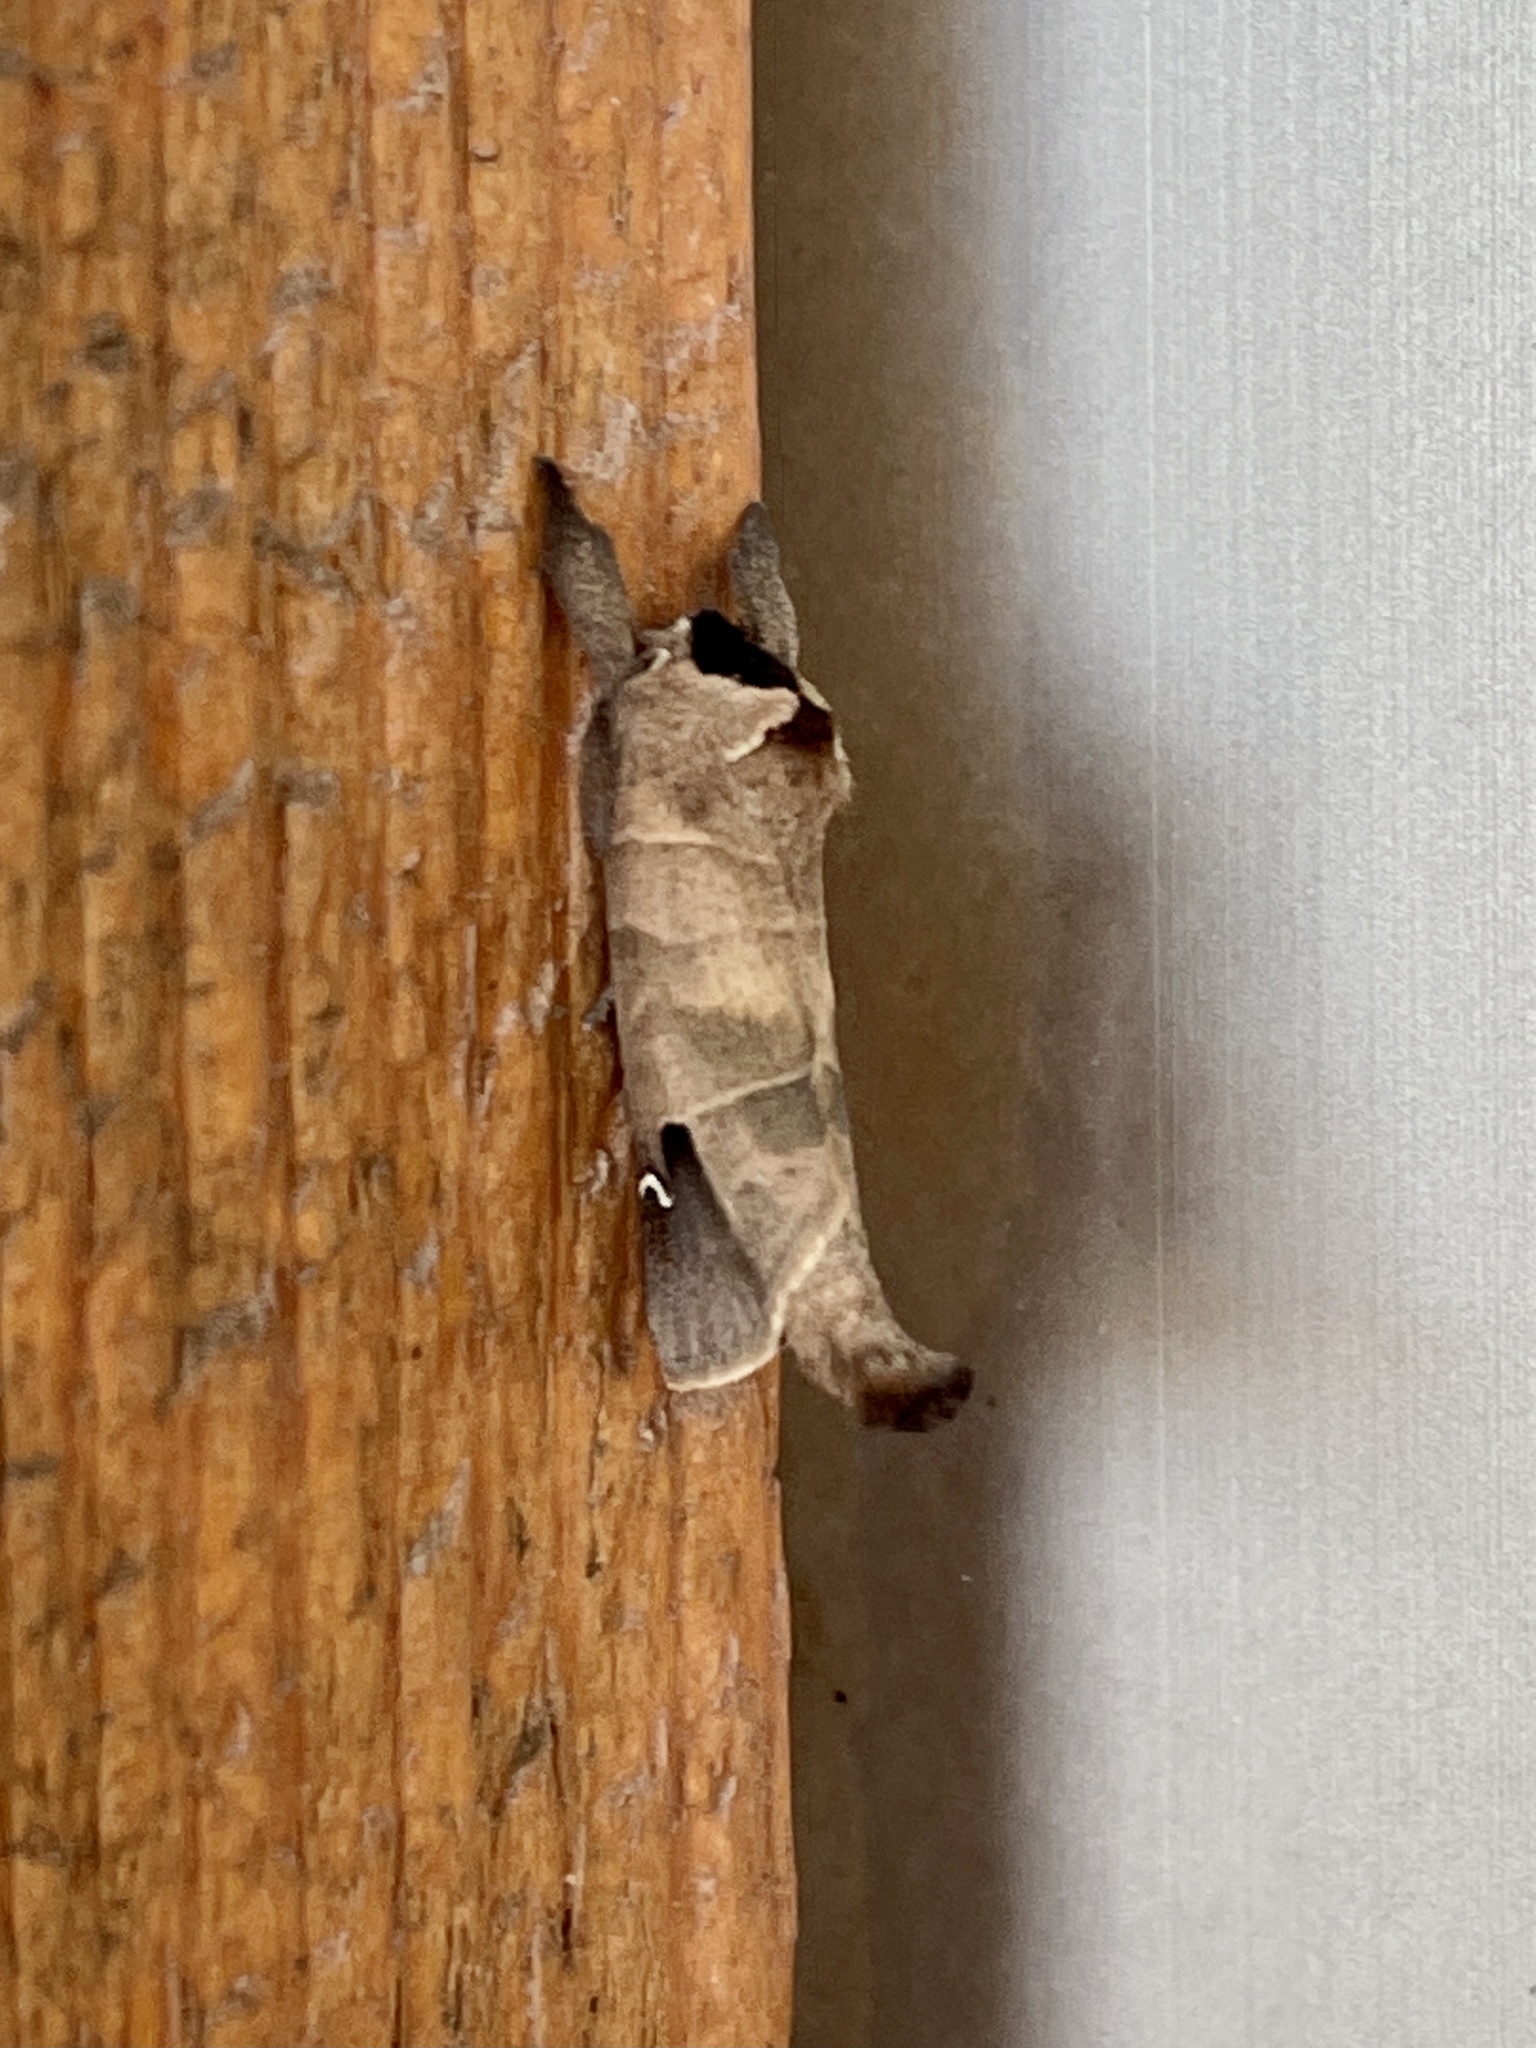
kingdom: Animalia
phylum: Arthropoda
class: Insecta
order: Lepidoptera
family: Notodontidae
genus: Clostera
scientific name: Clostera albosigma
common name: Sigmoid prominent
